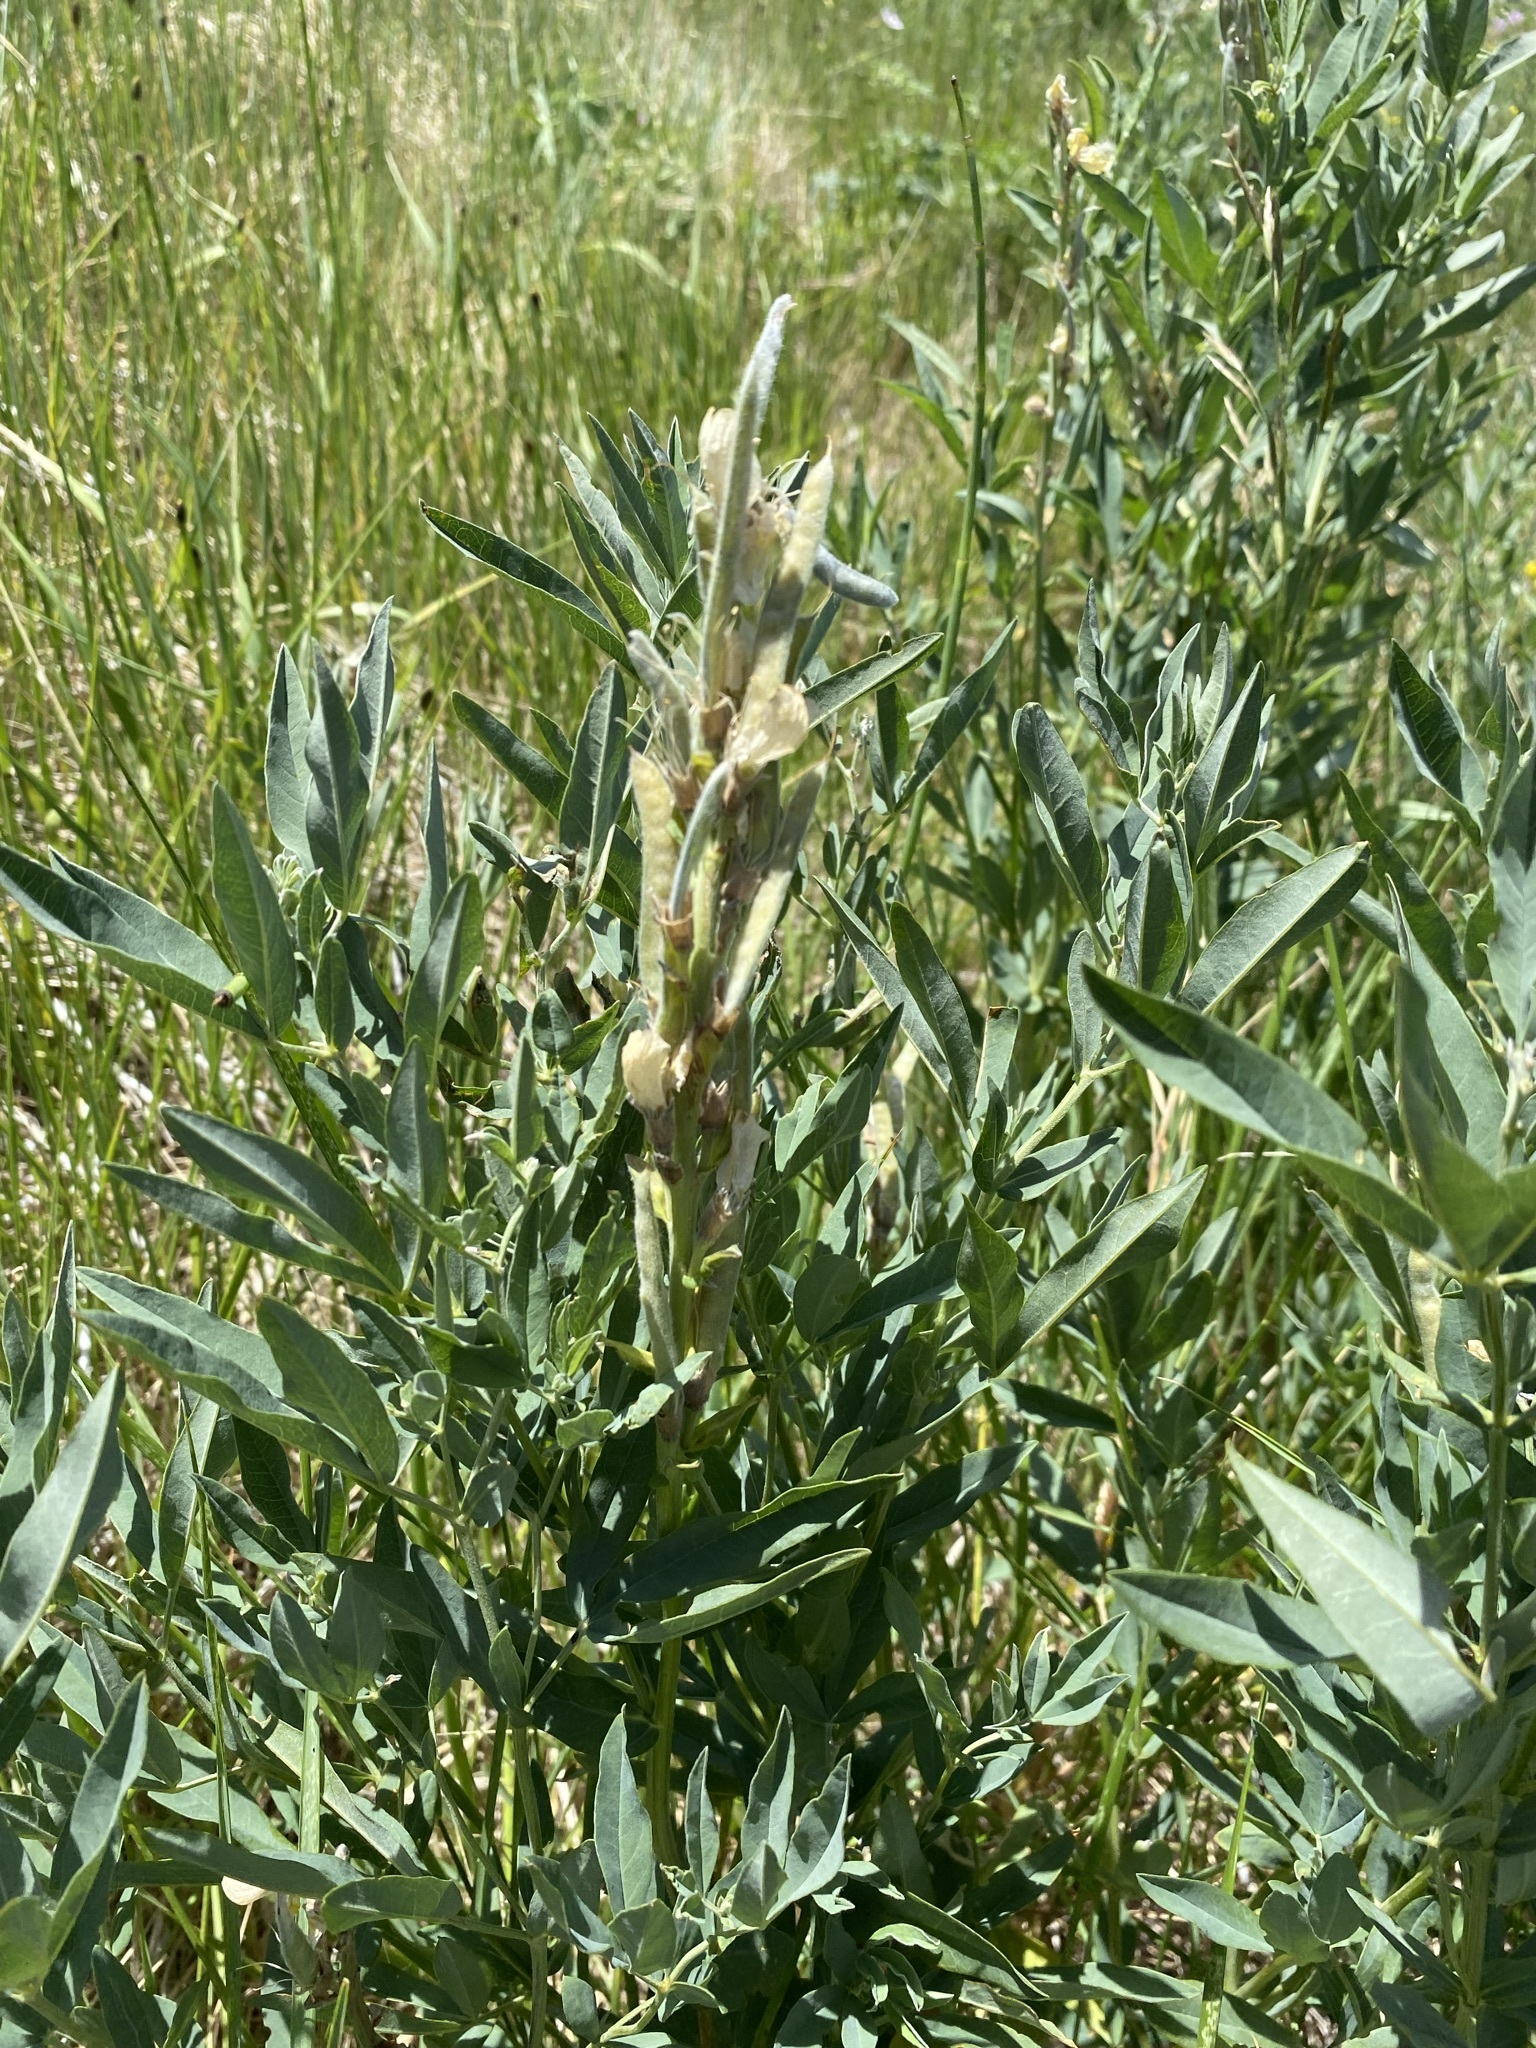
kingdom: Plantae
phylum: Tracheophyta
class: Magnoliopsida
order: Fabales
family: Fabaceae
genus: Thermopsis
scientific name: Thermopsis montana
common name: False lupin
